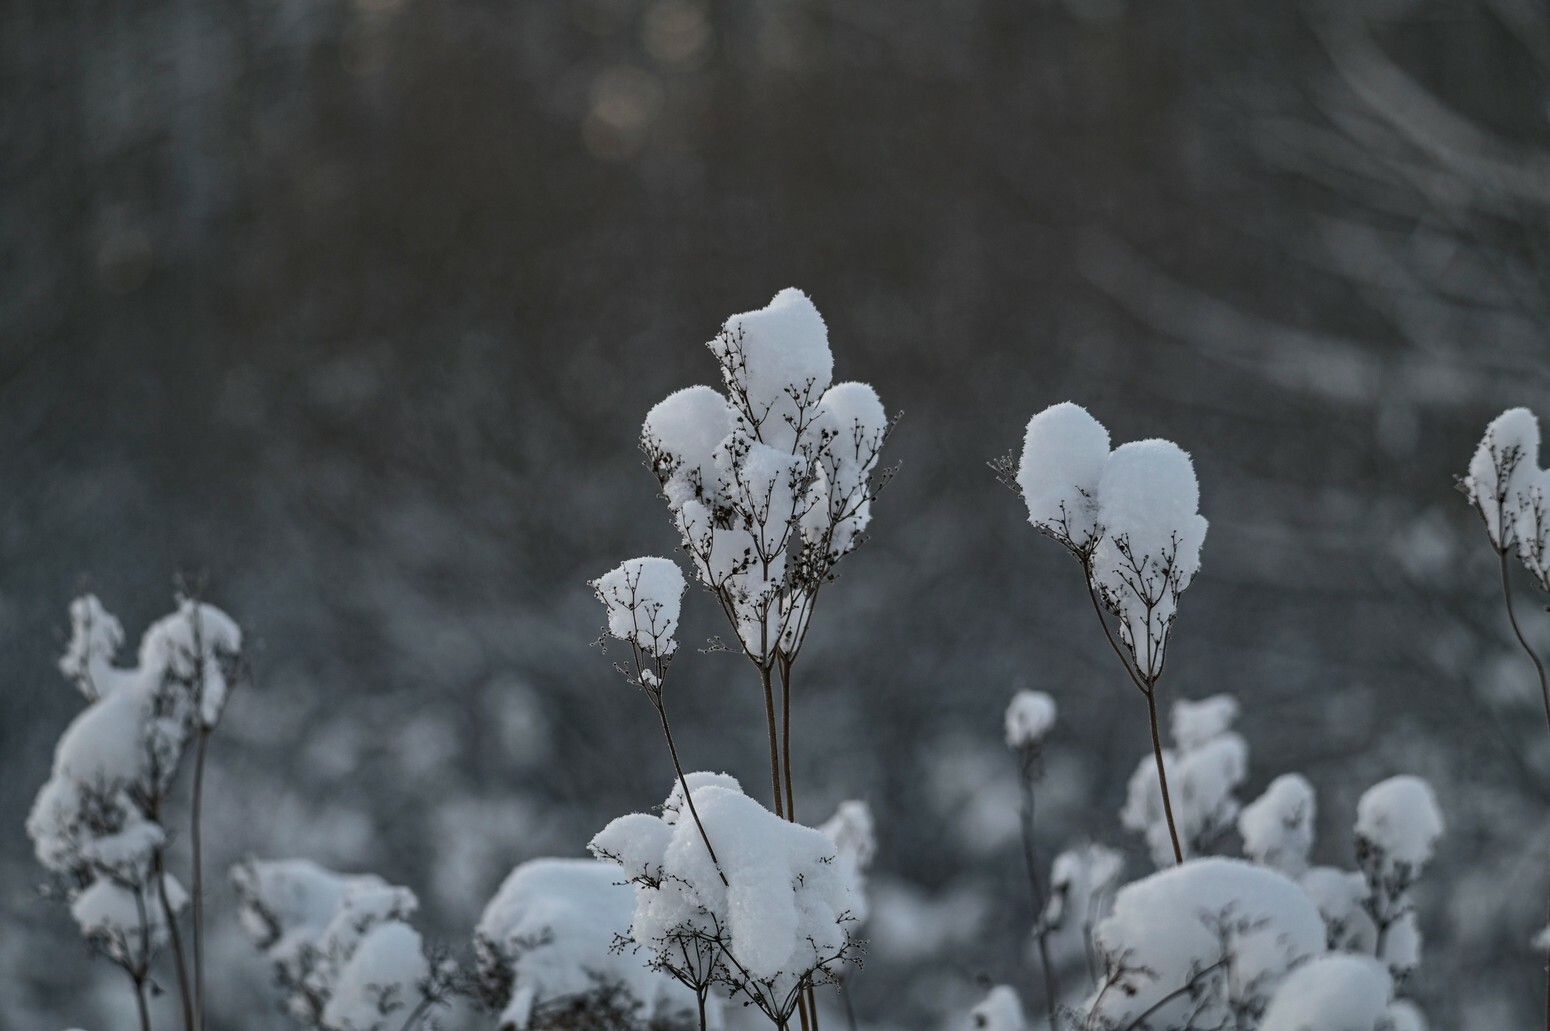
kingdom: Plantae
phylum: Tracheophyta
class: Magnoliopsida
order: Rosales
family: Rosaceae
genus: Filipendula
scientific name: Filipendula vulgaris
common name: Dropwort
